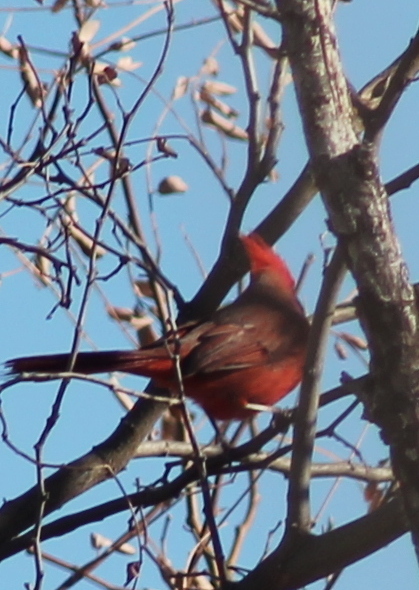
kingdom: Animalia
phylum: Chordata
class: Aves
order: Passeriformes
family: Cardinalidae
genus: Cardinalis
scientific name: Cardinalis cardinalis
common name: Northern cardinal
